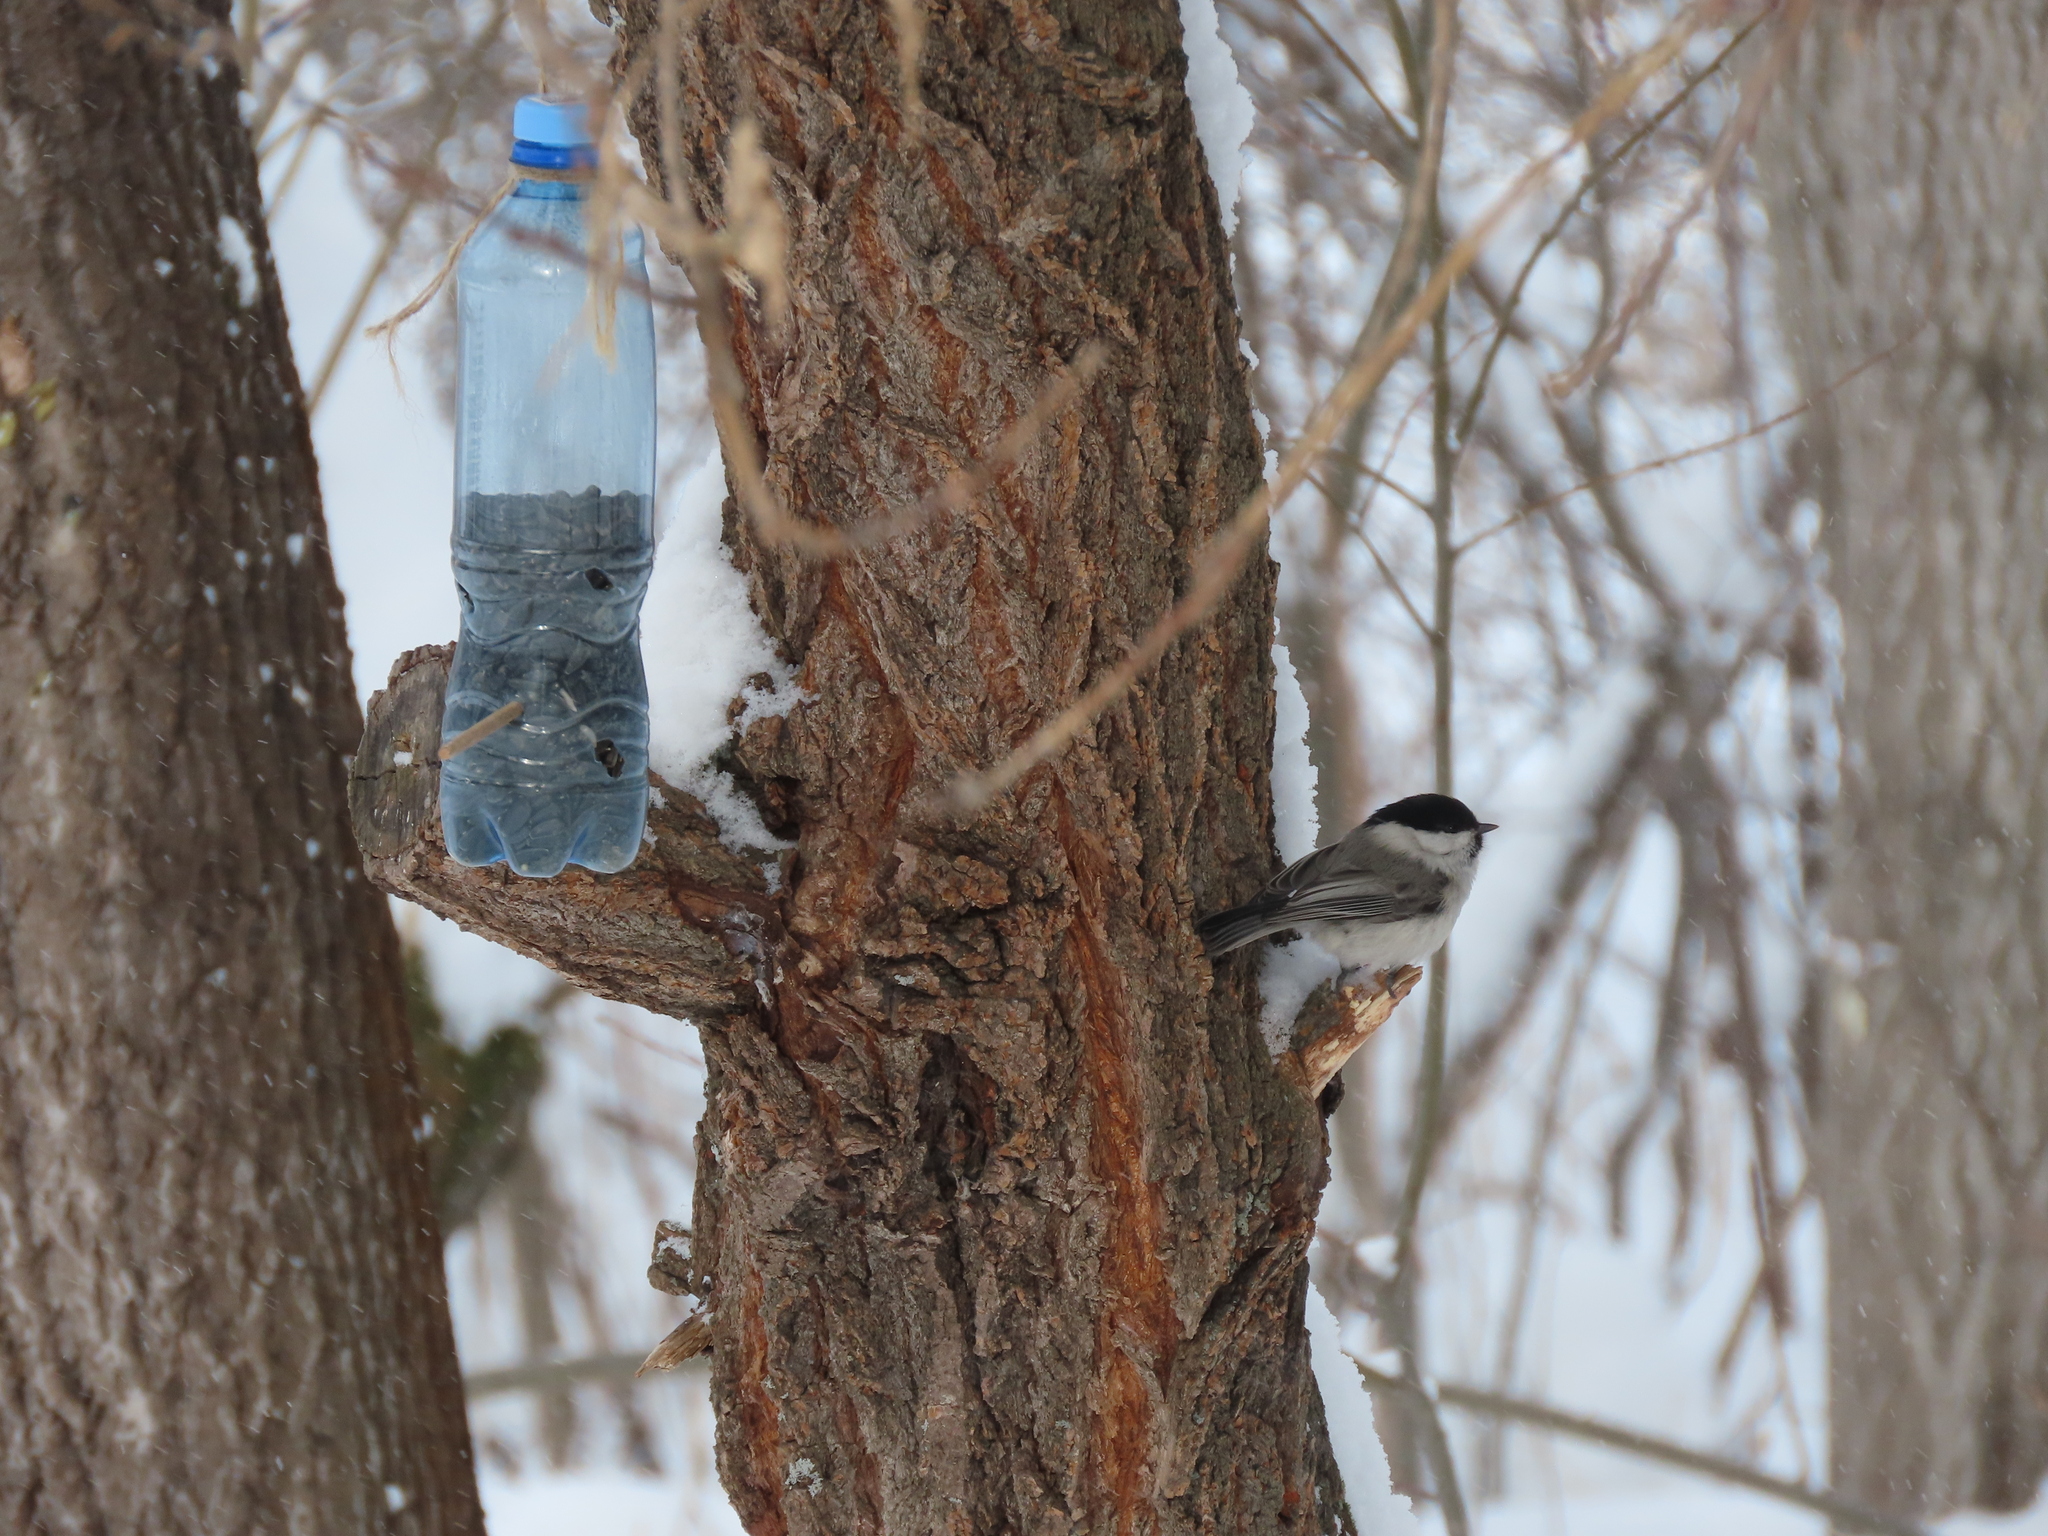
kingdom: Animalia
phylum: Chordata
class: Aves
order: Passeriformes
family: Paridae
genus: Poecile
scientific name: Poecile montanus
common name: Willow tit
